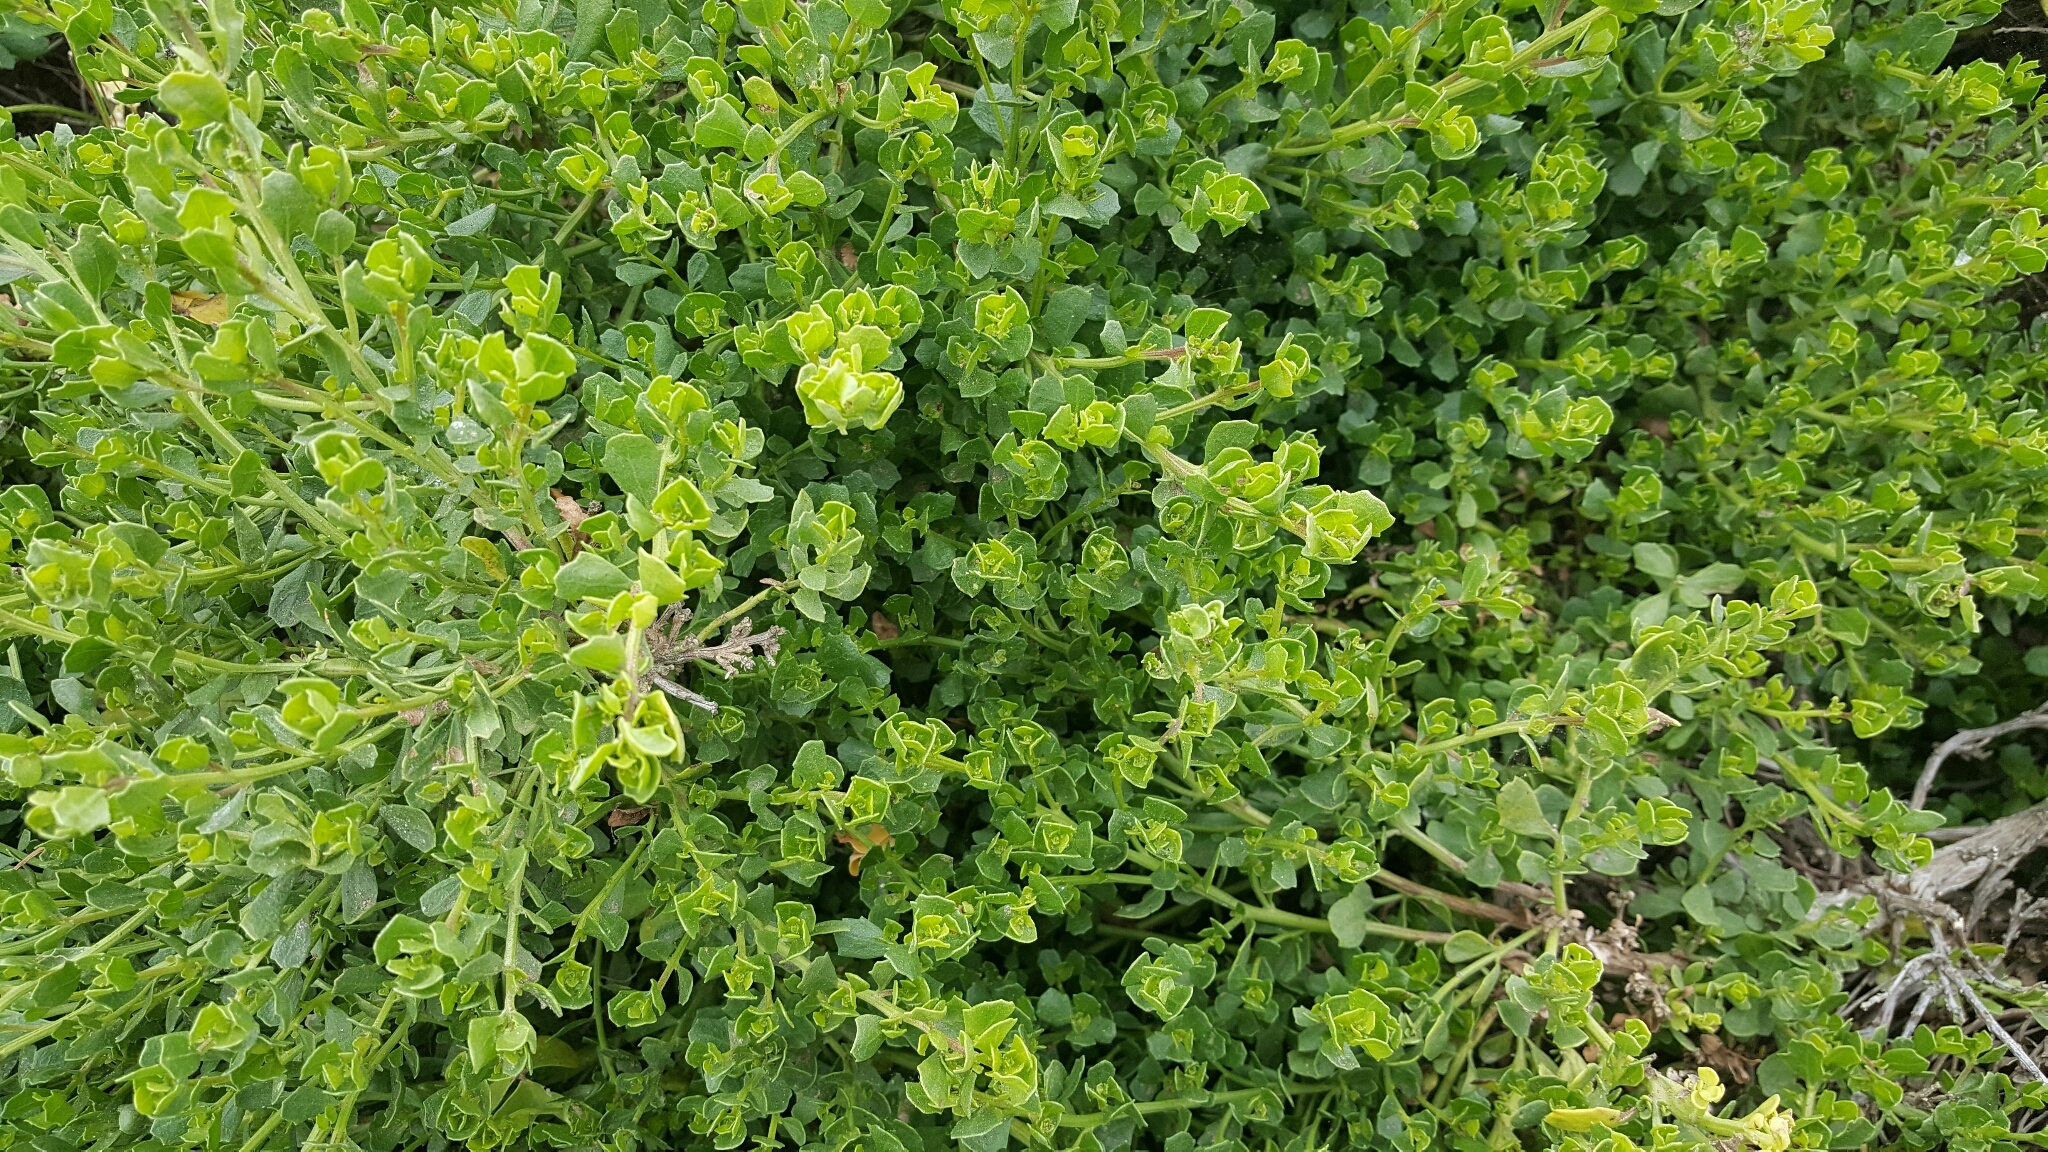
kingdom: Plantae
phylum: Tracheophyta
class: Magnoliopsida
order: Asterales
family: Asteraceae
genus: Baccharis
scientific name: Baccharis pilularis
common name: Coyotebrush
